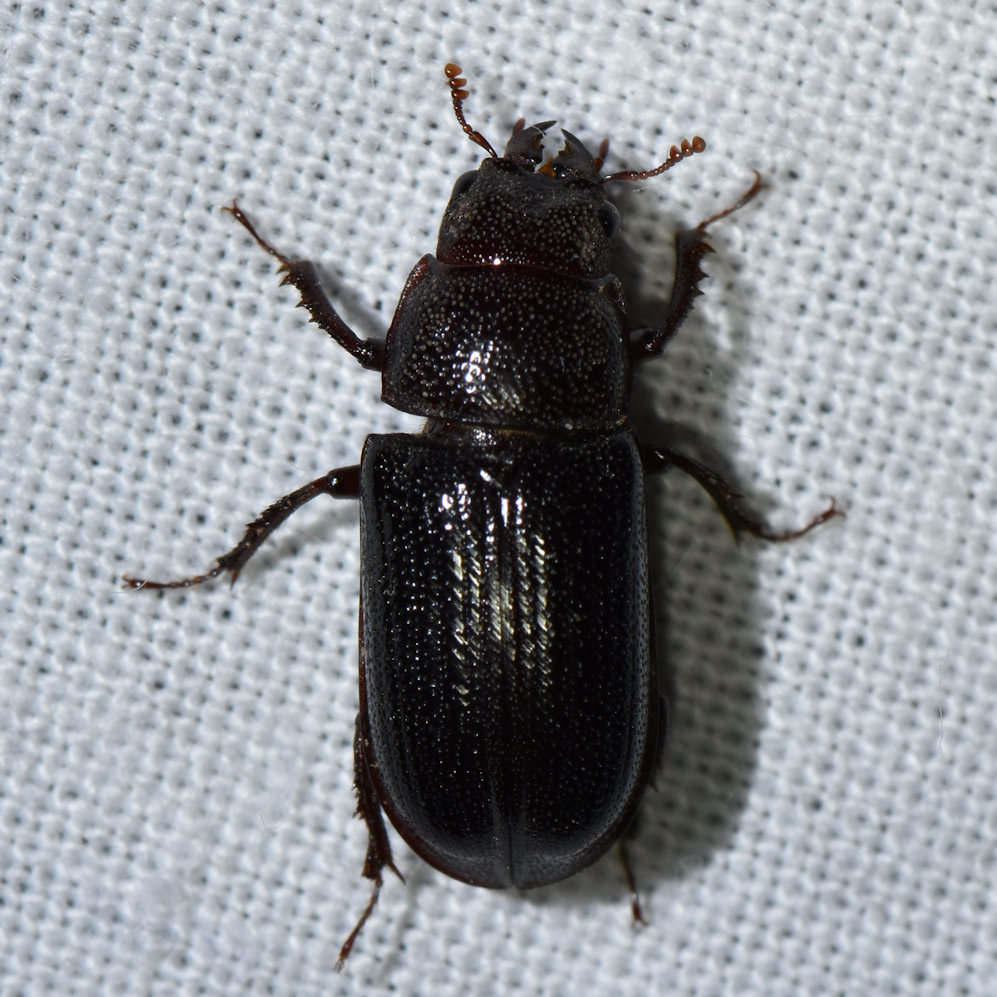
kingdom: Animalia
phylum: Arthropoda
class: Insecta
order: Coleoptera
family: Lucanidae
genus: Ceruchus
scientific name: Ceruchus piceus
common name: Red-rot decay stag beetle
